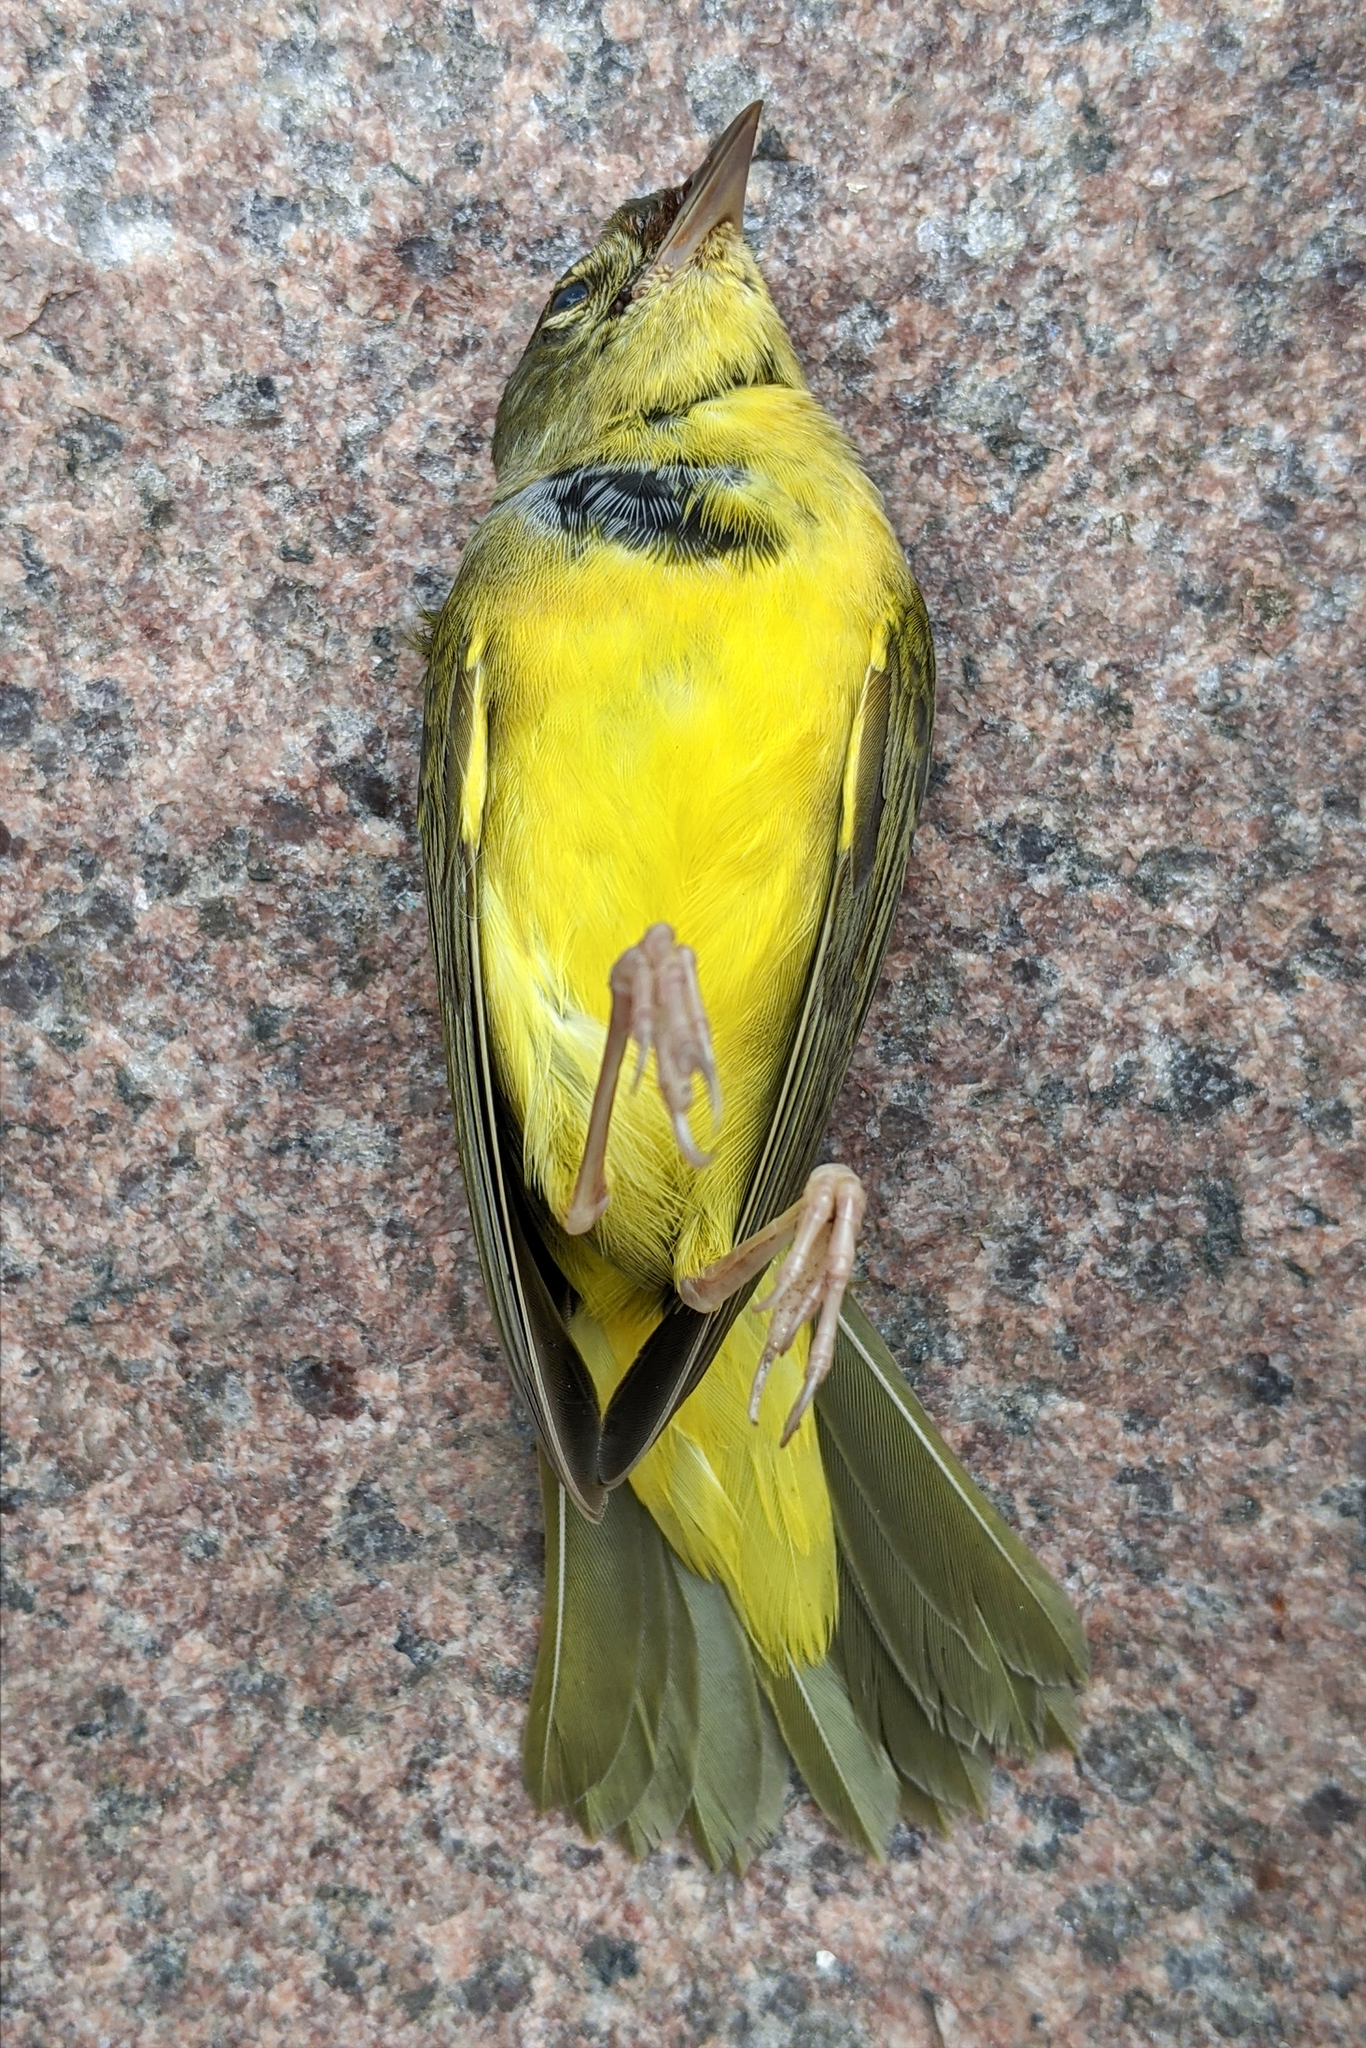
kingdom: Animalia
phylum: Chordata
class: Aves
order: Passeriformes
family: Parulidae
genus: Geothlypis
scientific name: Geothlypis philadelphia
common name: Mourning warbler
